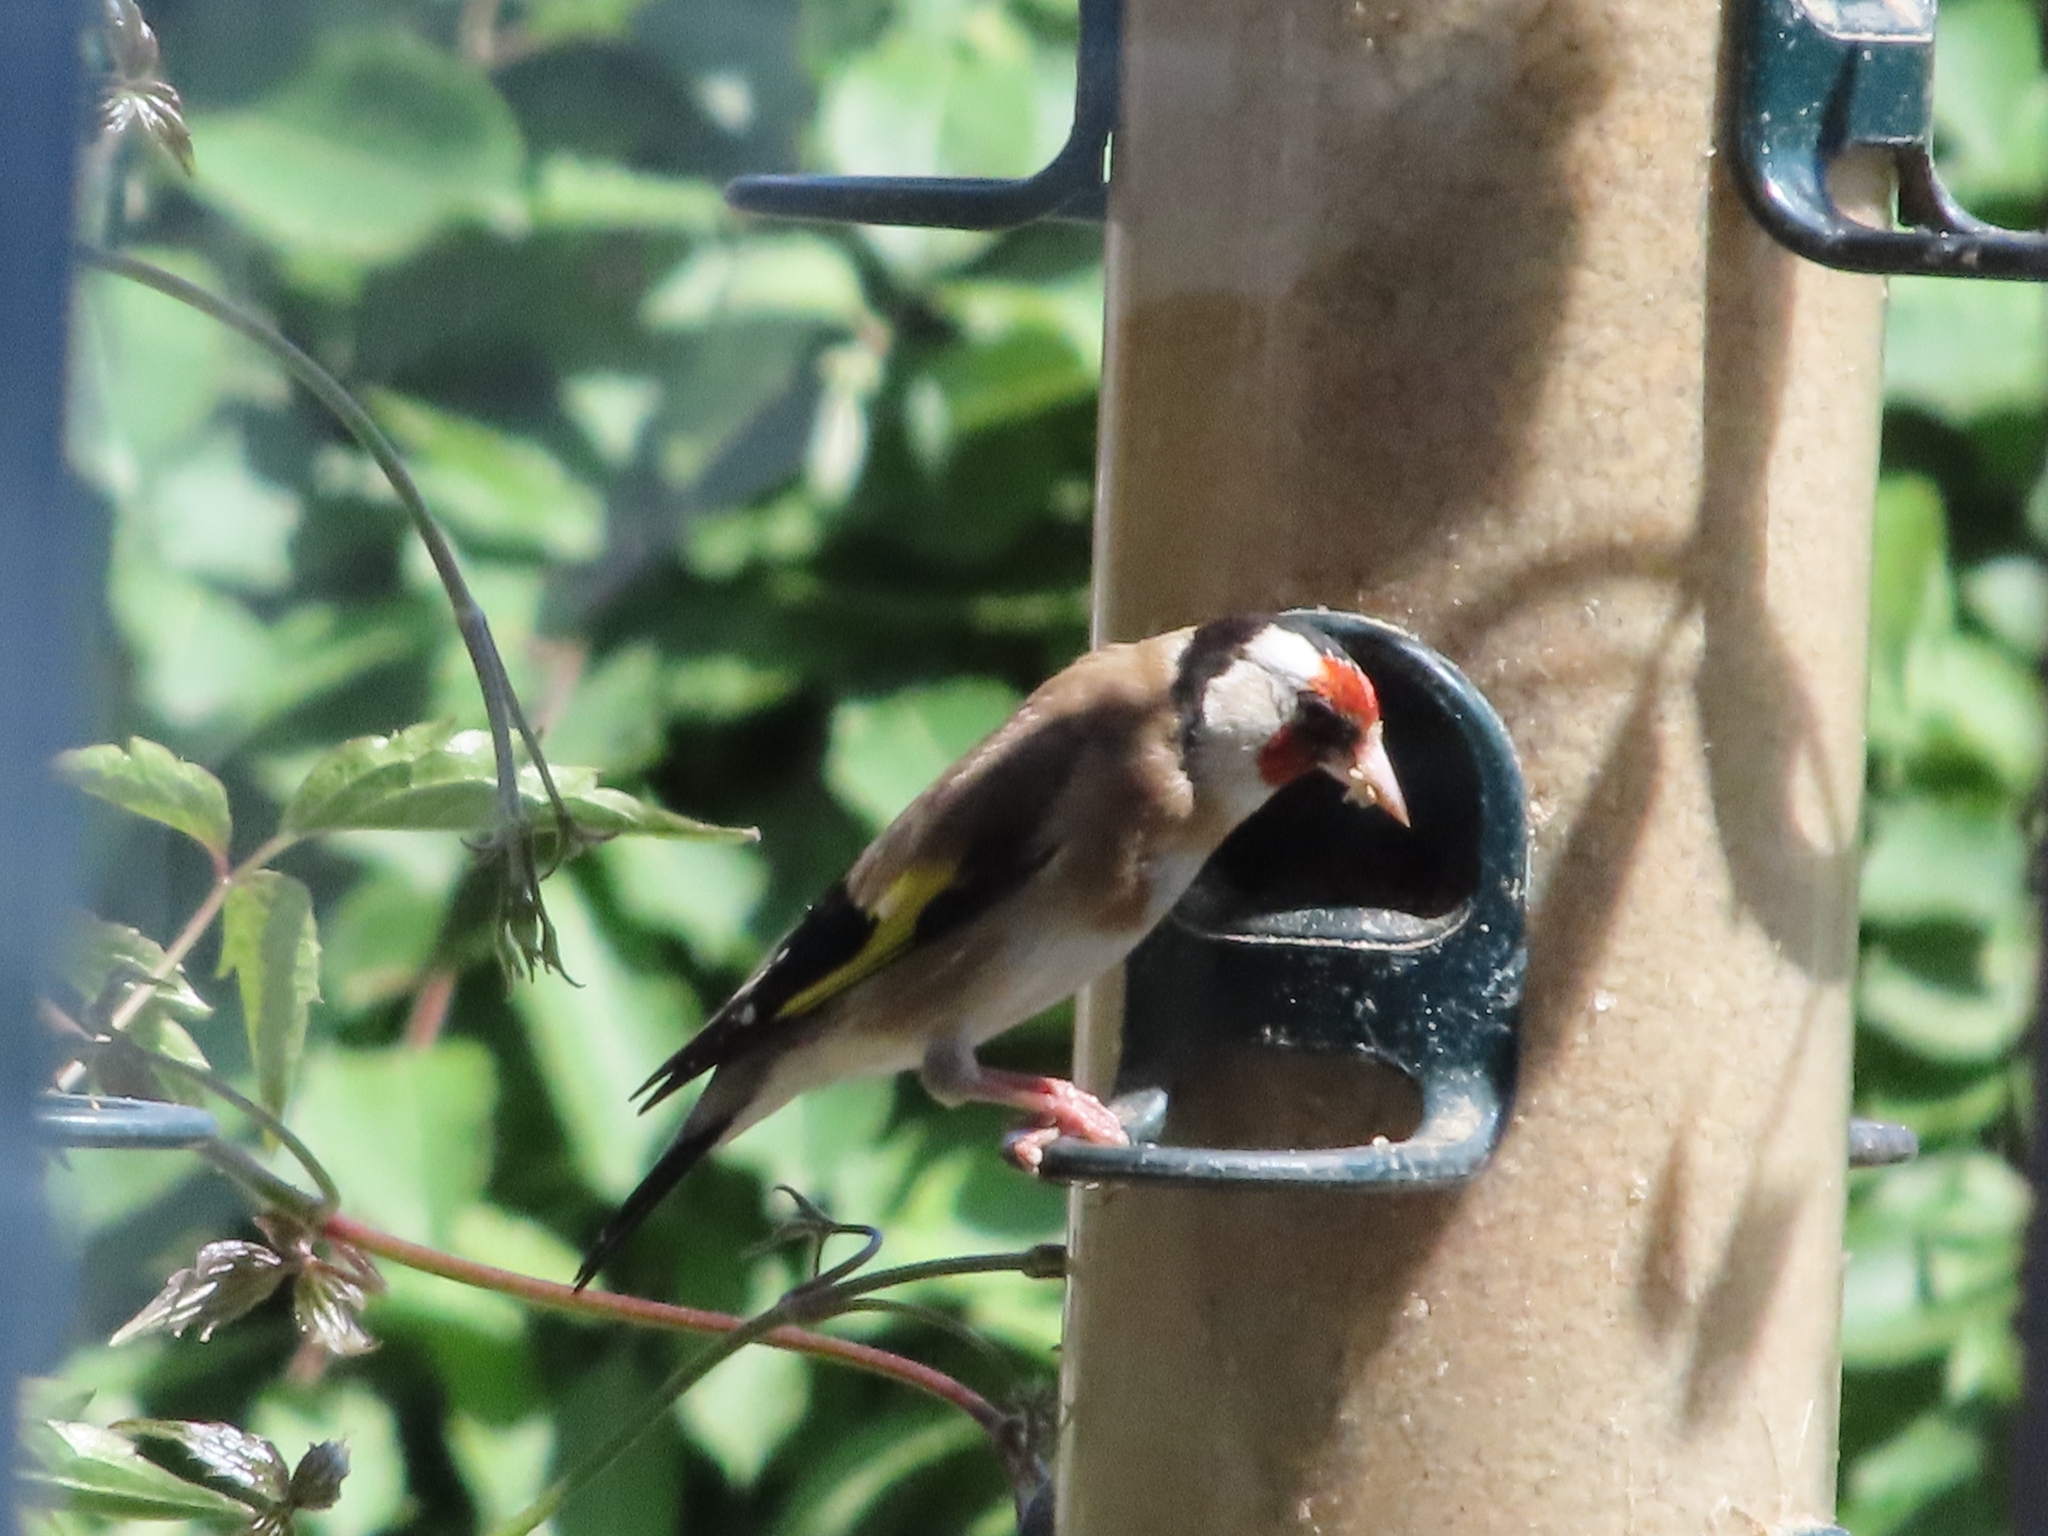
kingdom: Animalia
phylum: Chordata
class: Aves
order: Passeriformes
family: Fringillidae
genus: Carduelis
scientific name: Carduelis carduelis
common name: European goldfinch
